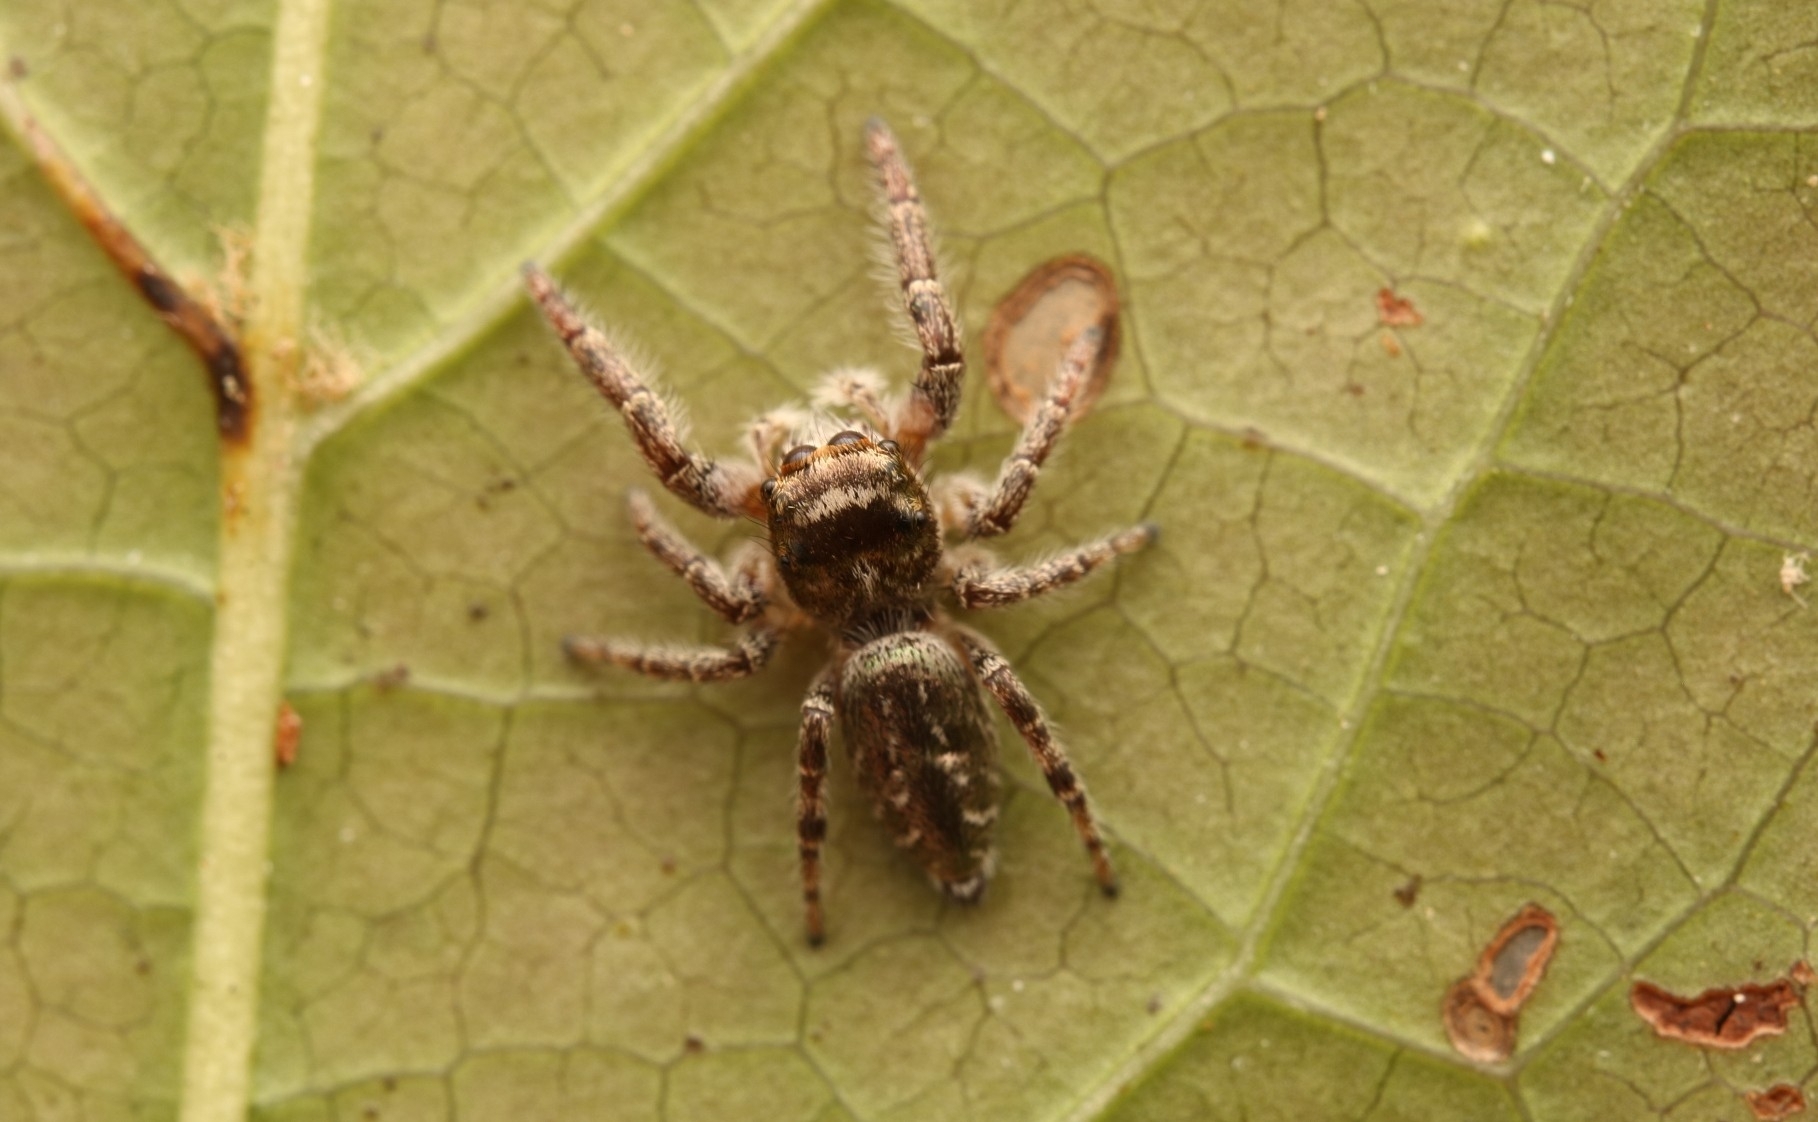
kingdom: Animalia
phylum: Arthropoda
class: Arachnida
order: Araneae
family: Salticidae
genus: Eris
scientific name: Eris militaris
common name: Bronze jumper
